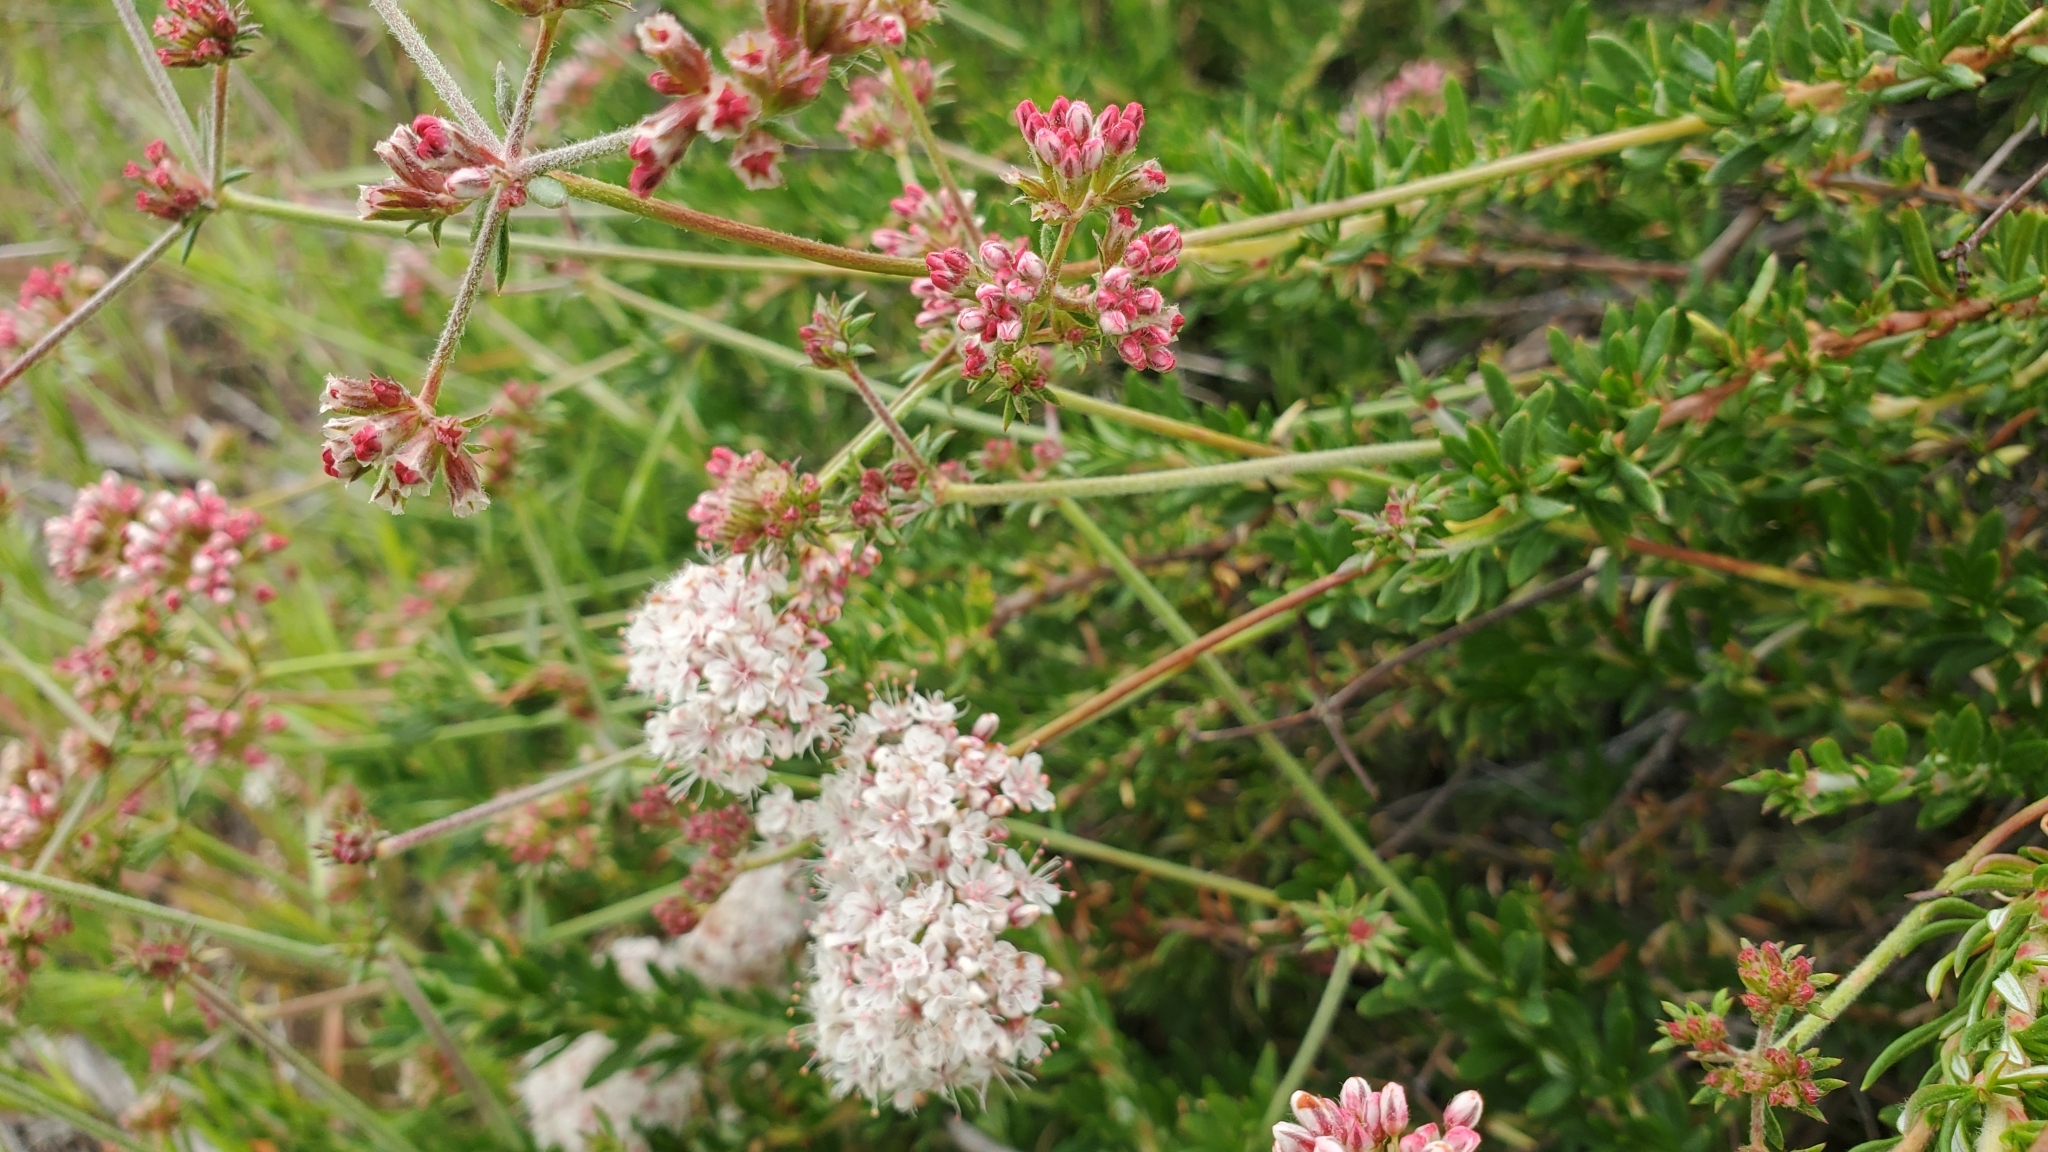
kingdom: Plantae
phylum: Tracheophyta
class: Magnoliopsida
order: Caryophyllales
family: Polygonaceae
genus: Eriogonum
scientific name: Eriogonum fasciculatum
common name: California wild buckwheat
